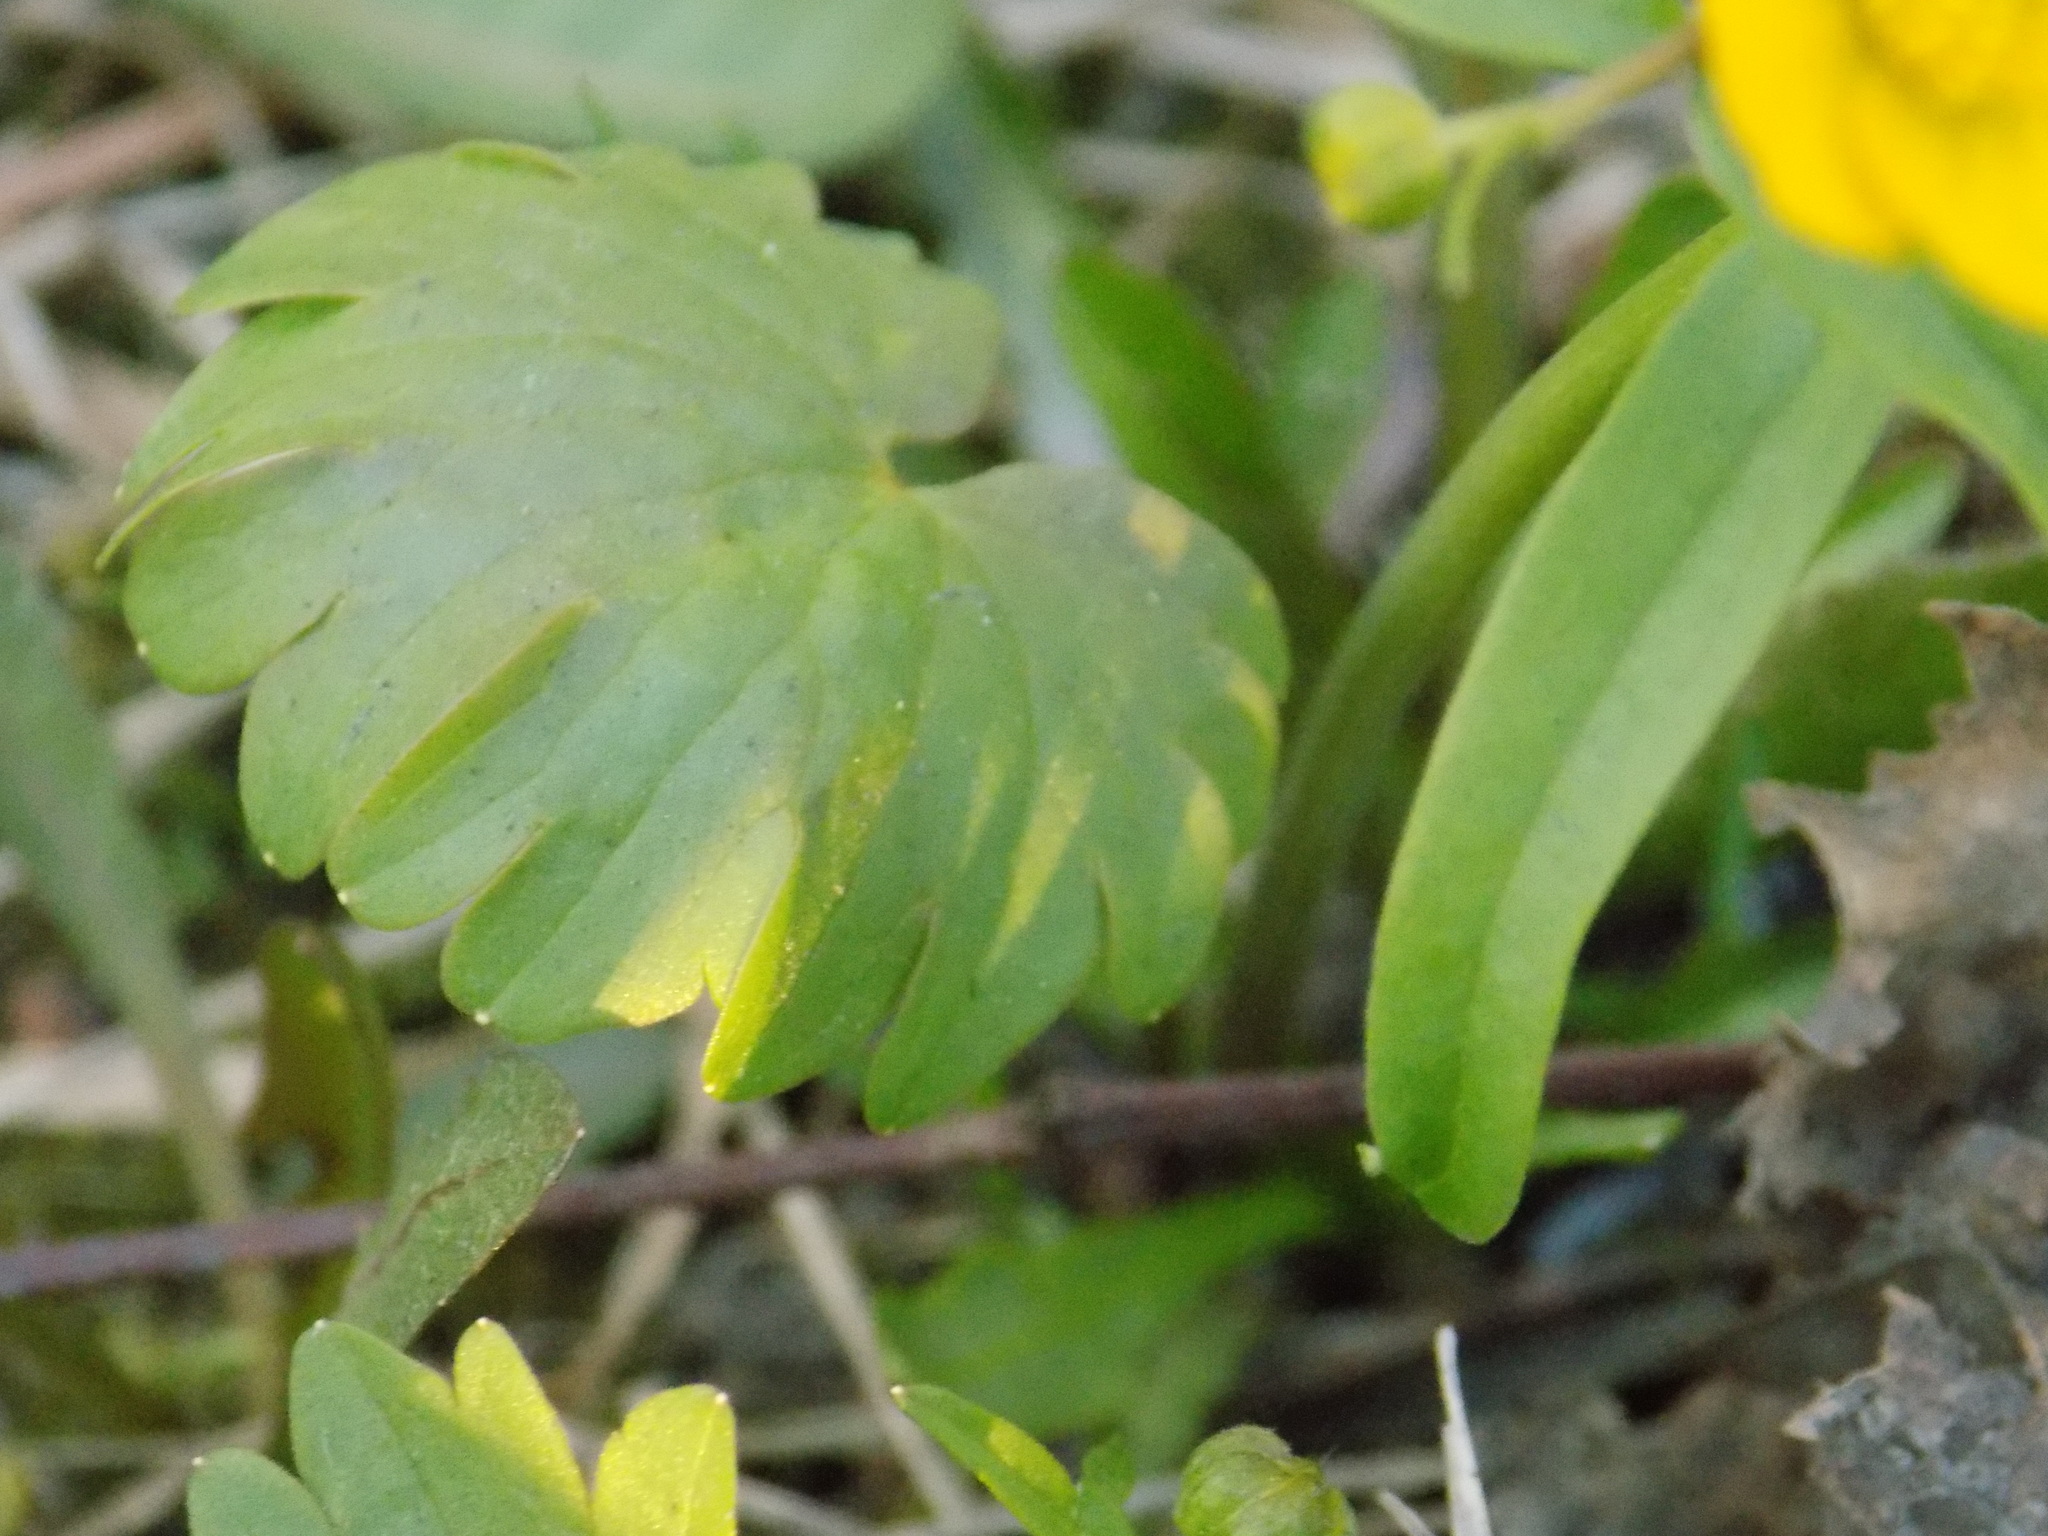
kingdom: Plantae
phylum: Tracheophyta
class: Magnoliopsida
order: Ranunculales
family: Ranunculaceae
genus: Ranunculus
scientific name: Ranunculus monophyllus
